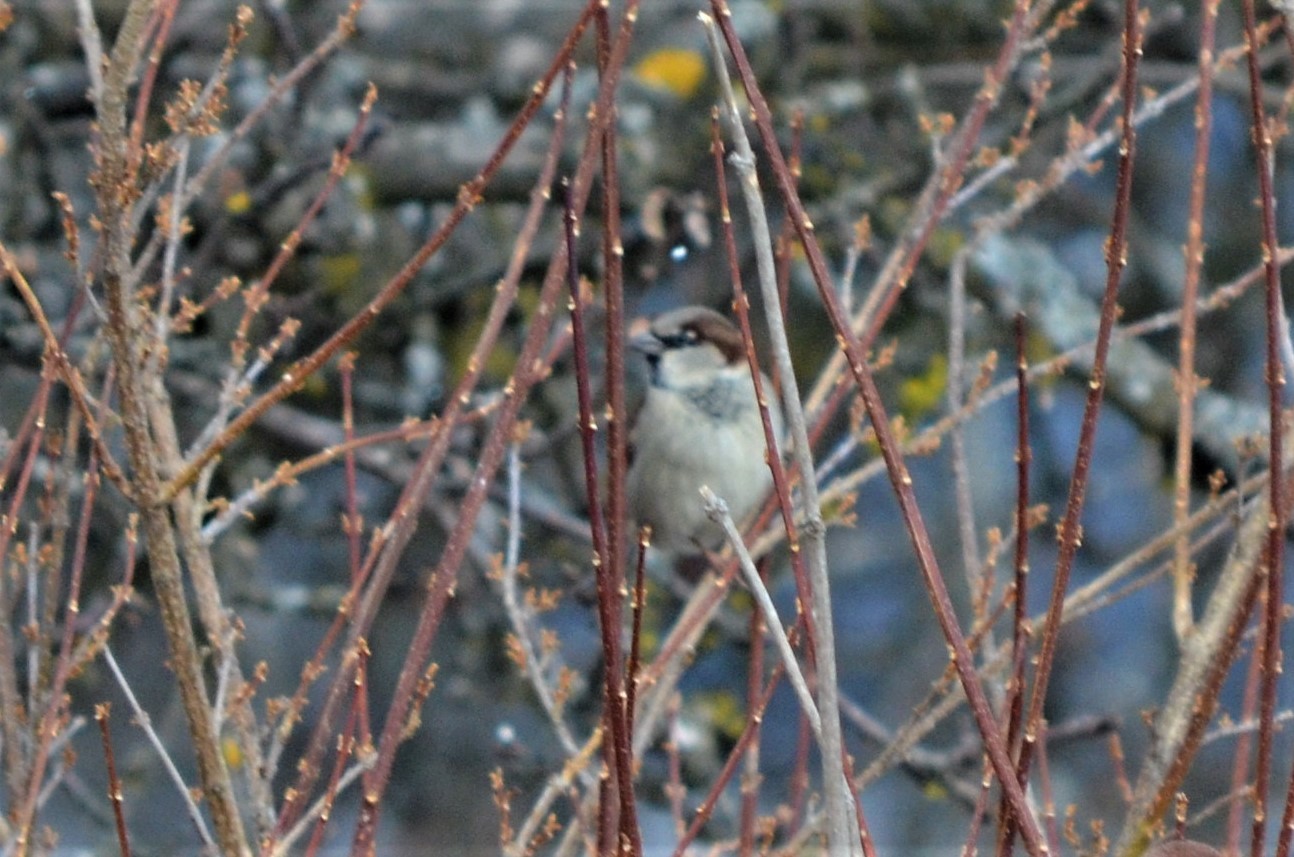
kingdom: Animalia
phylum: Chordata
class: Aves
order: Passeriformes
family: Passeridae
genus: Passer
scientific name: Passer domesticus
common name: House sparrow
